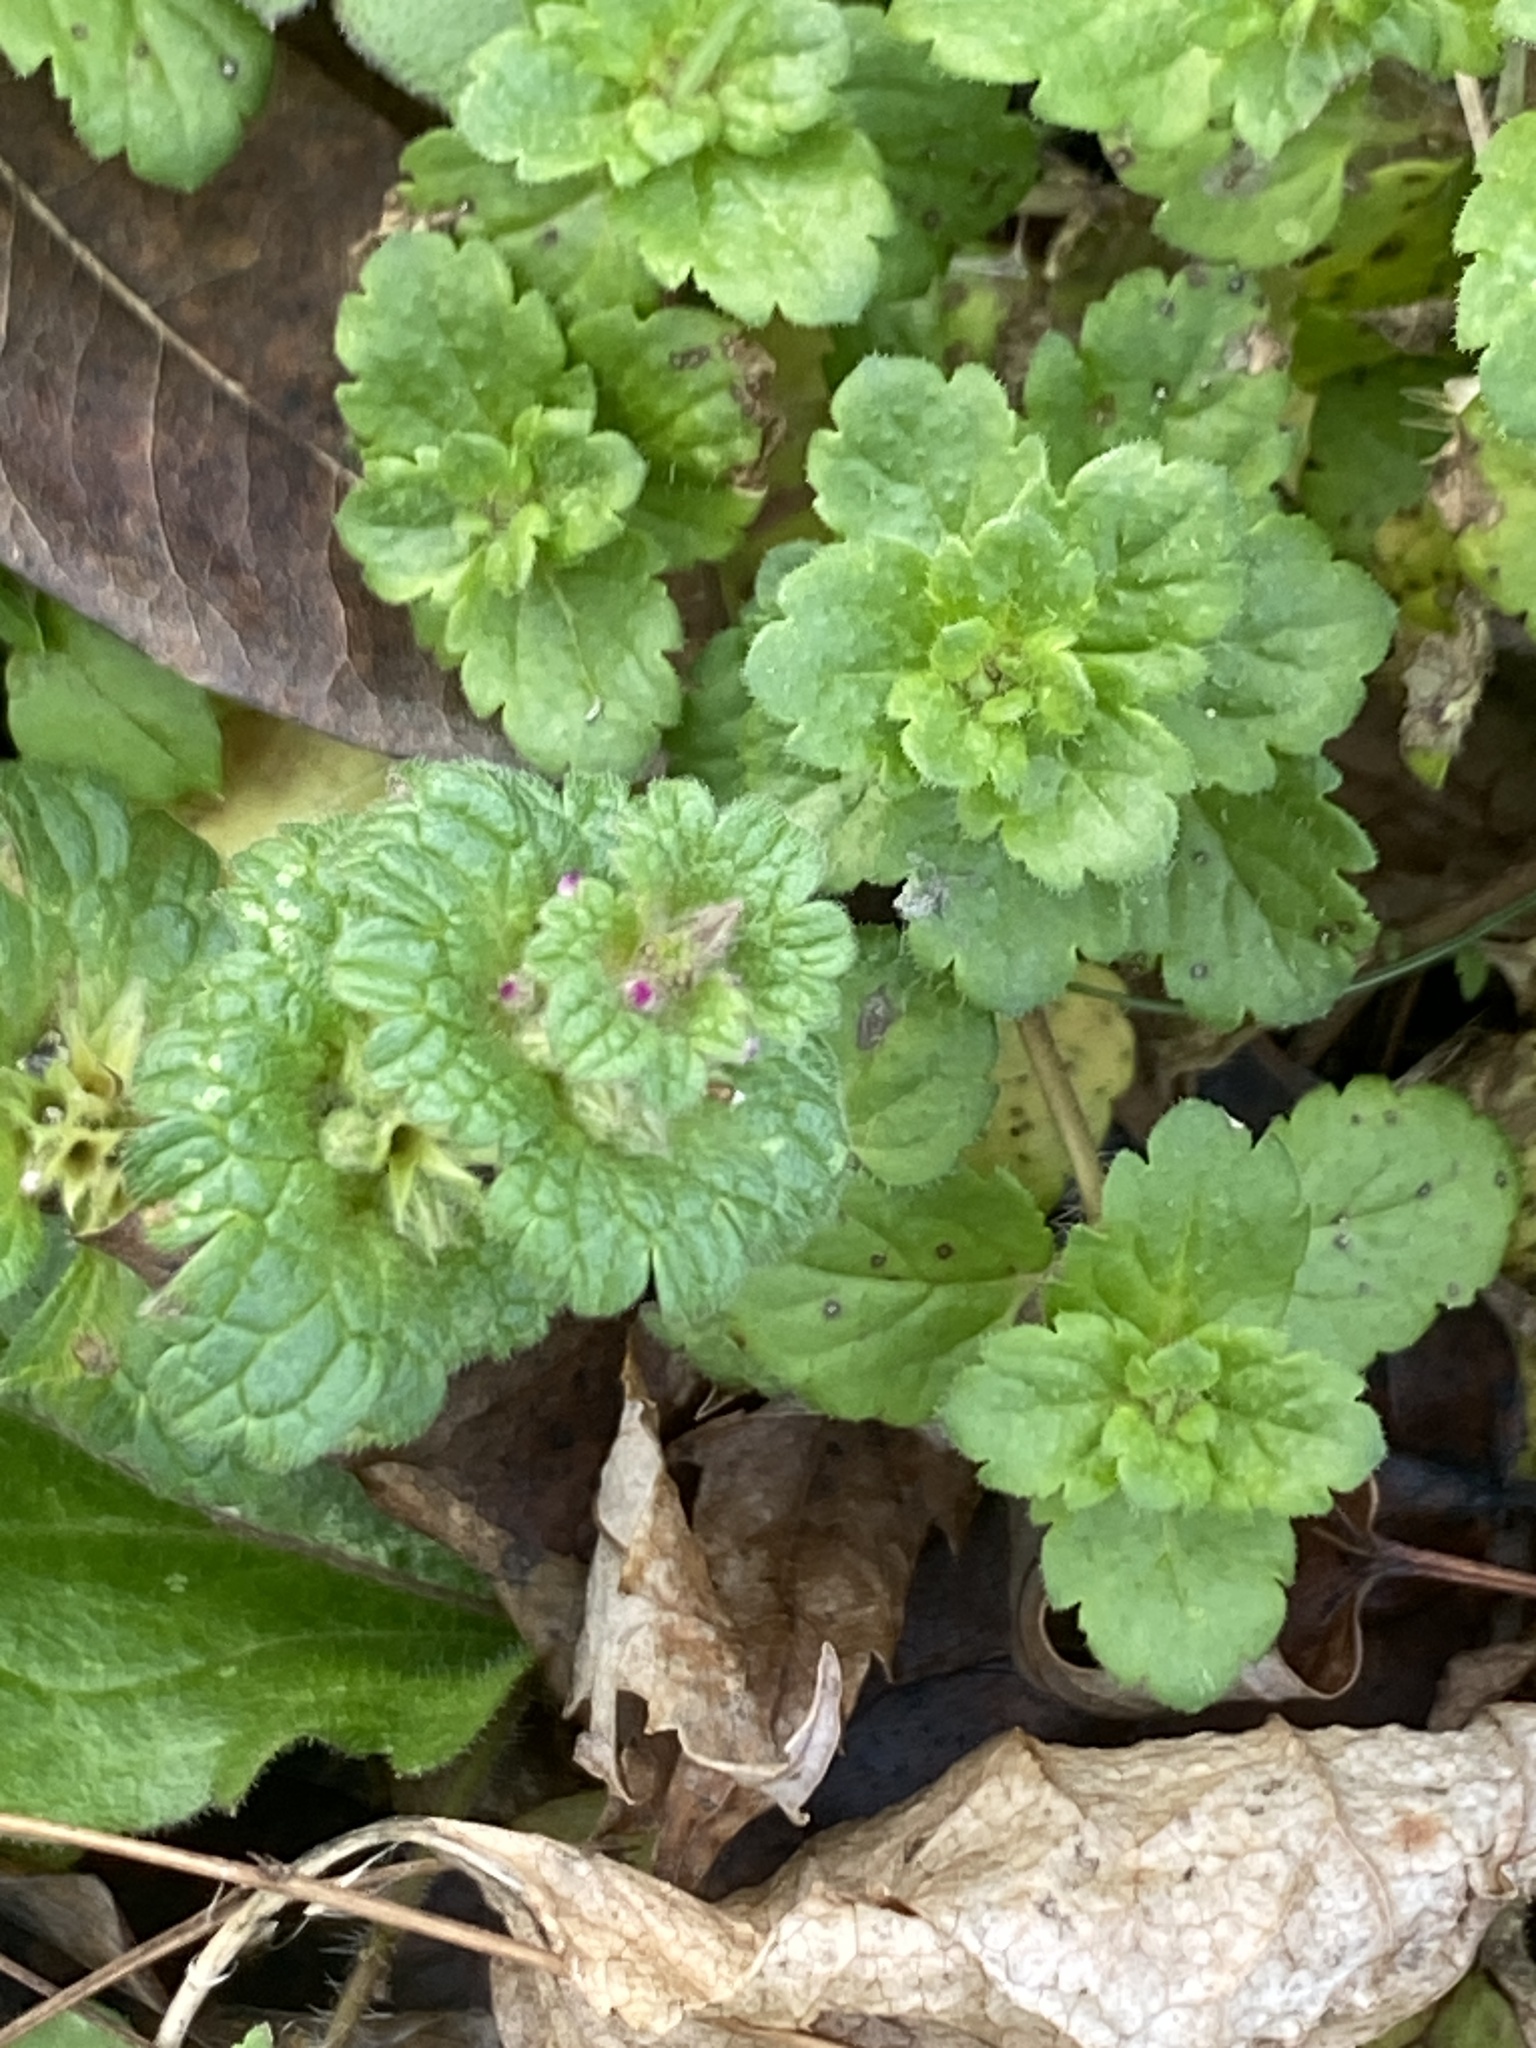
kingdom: Plantae
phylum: Tracheophyta
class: Magnoliopsida
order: Lamiales
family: Lamiaceae
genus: Lamium
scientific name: Lamium amplexicaule
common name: Henbit dead-nettle
